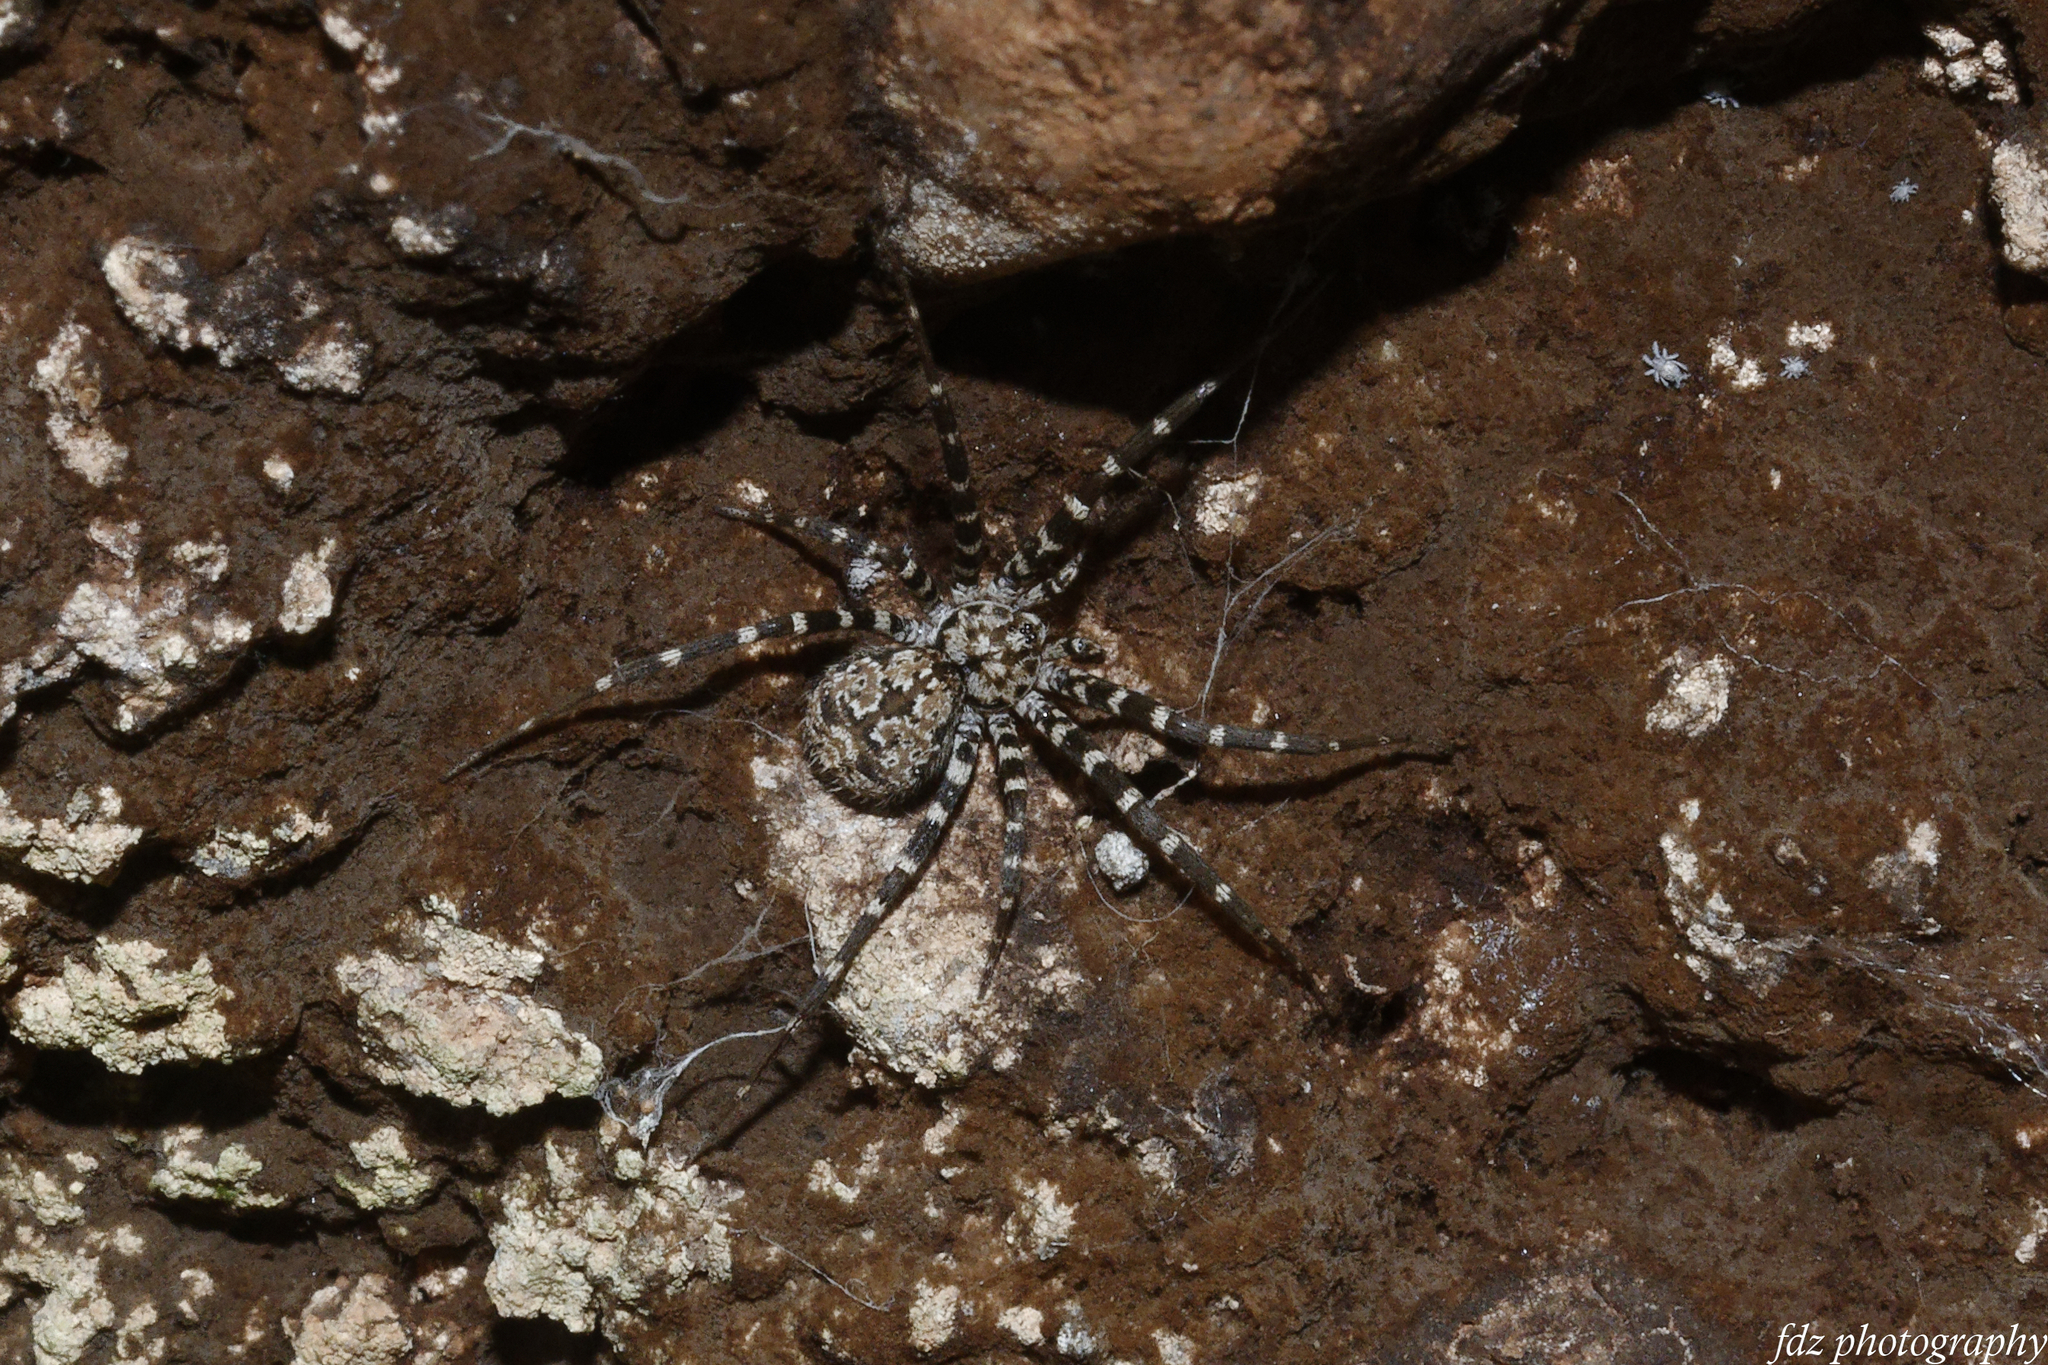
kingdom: Animalia
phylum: Arthropoda
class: Arachnida
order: Araneae
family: Hersiliidae
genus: Hersiliola
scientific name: Hersiliola macullulata
